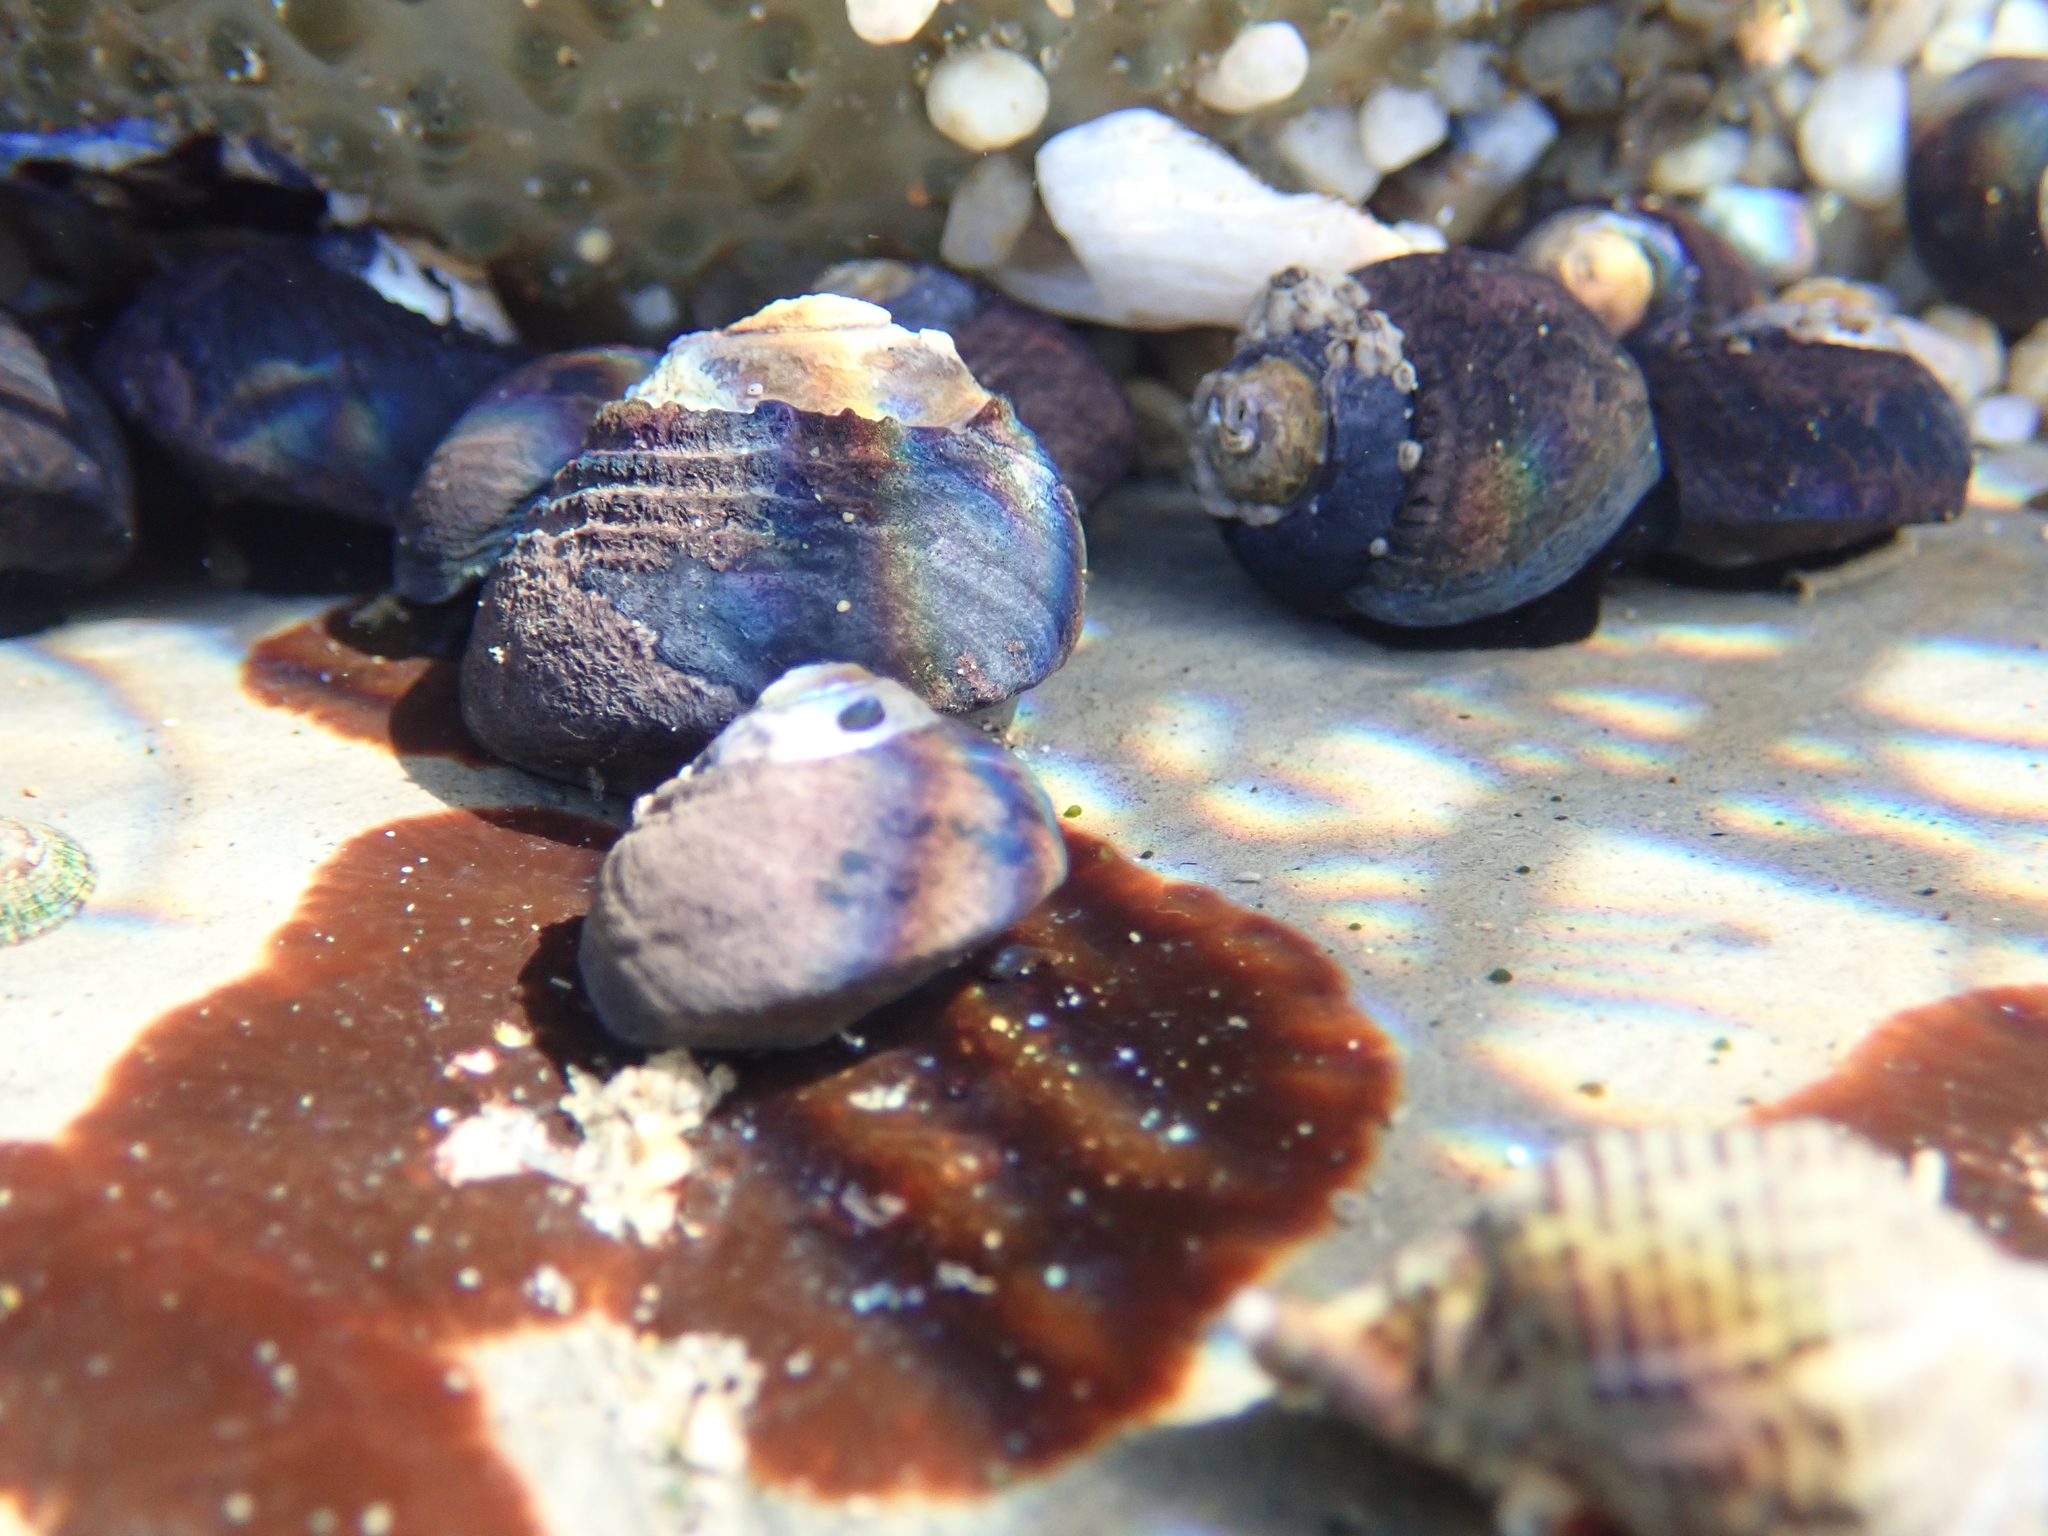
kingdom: Animalia
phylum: Mollusca
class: Gastropoda
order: Trochida
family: Tegulidae
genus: Tegula
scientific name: Tegula funebralis
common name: Black tegula
